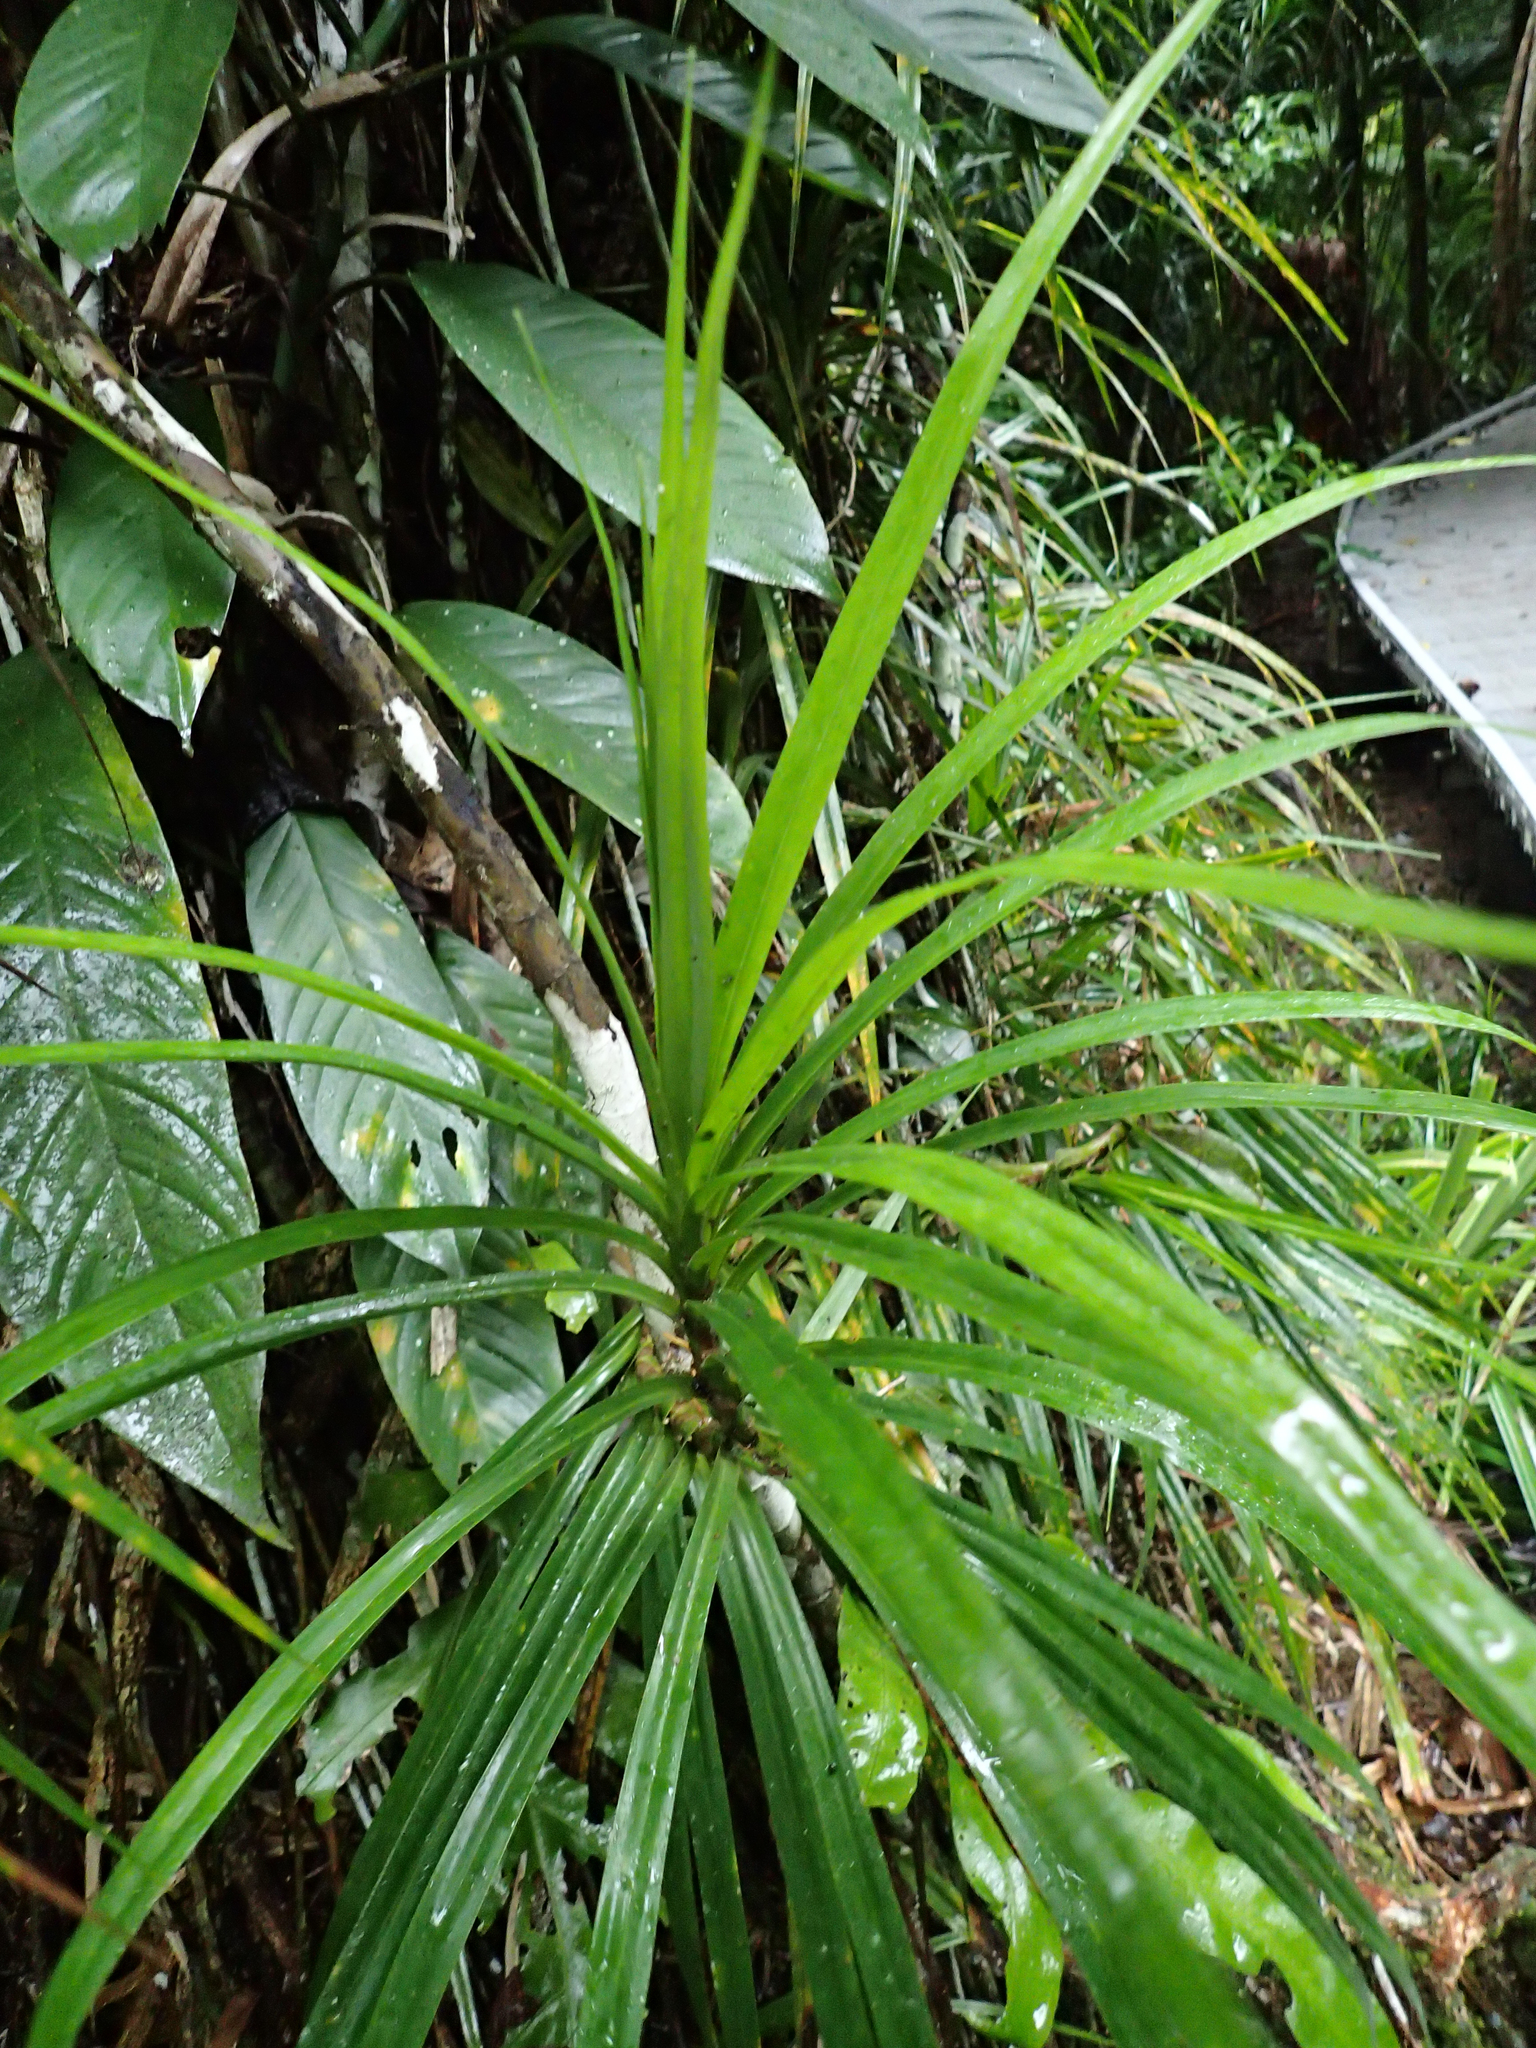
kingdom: Plantae
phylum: Tracheophyta
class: Liliopsida
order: Pandanales
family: Pandanaceae
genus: Freycinetia
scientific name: Freycinetia excelsa
